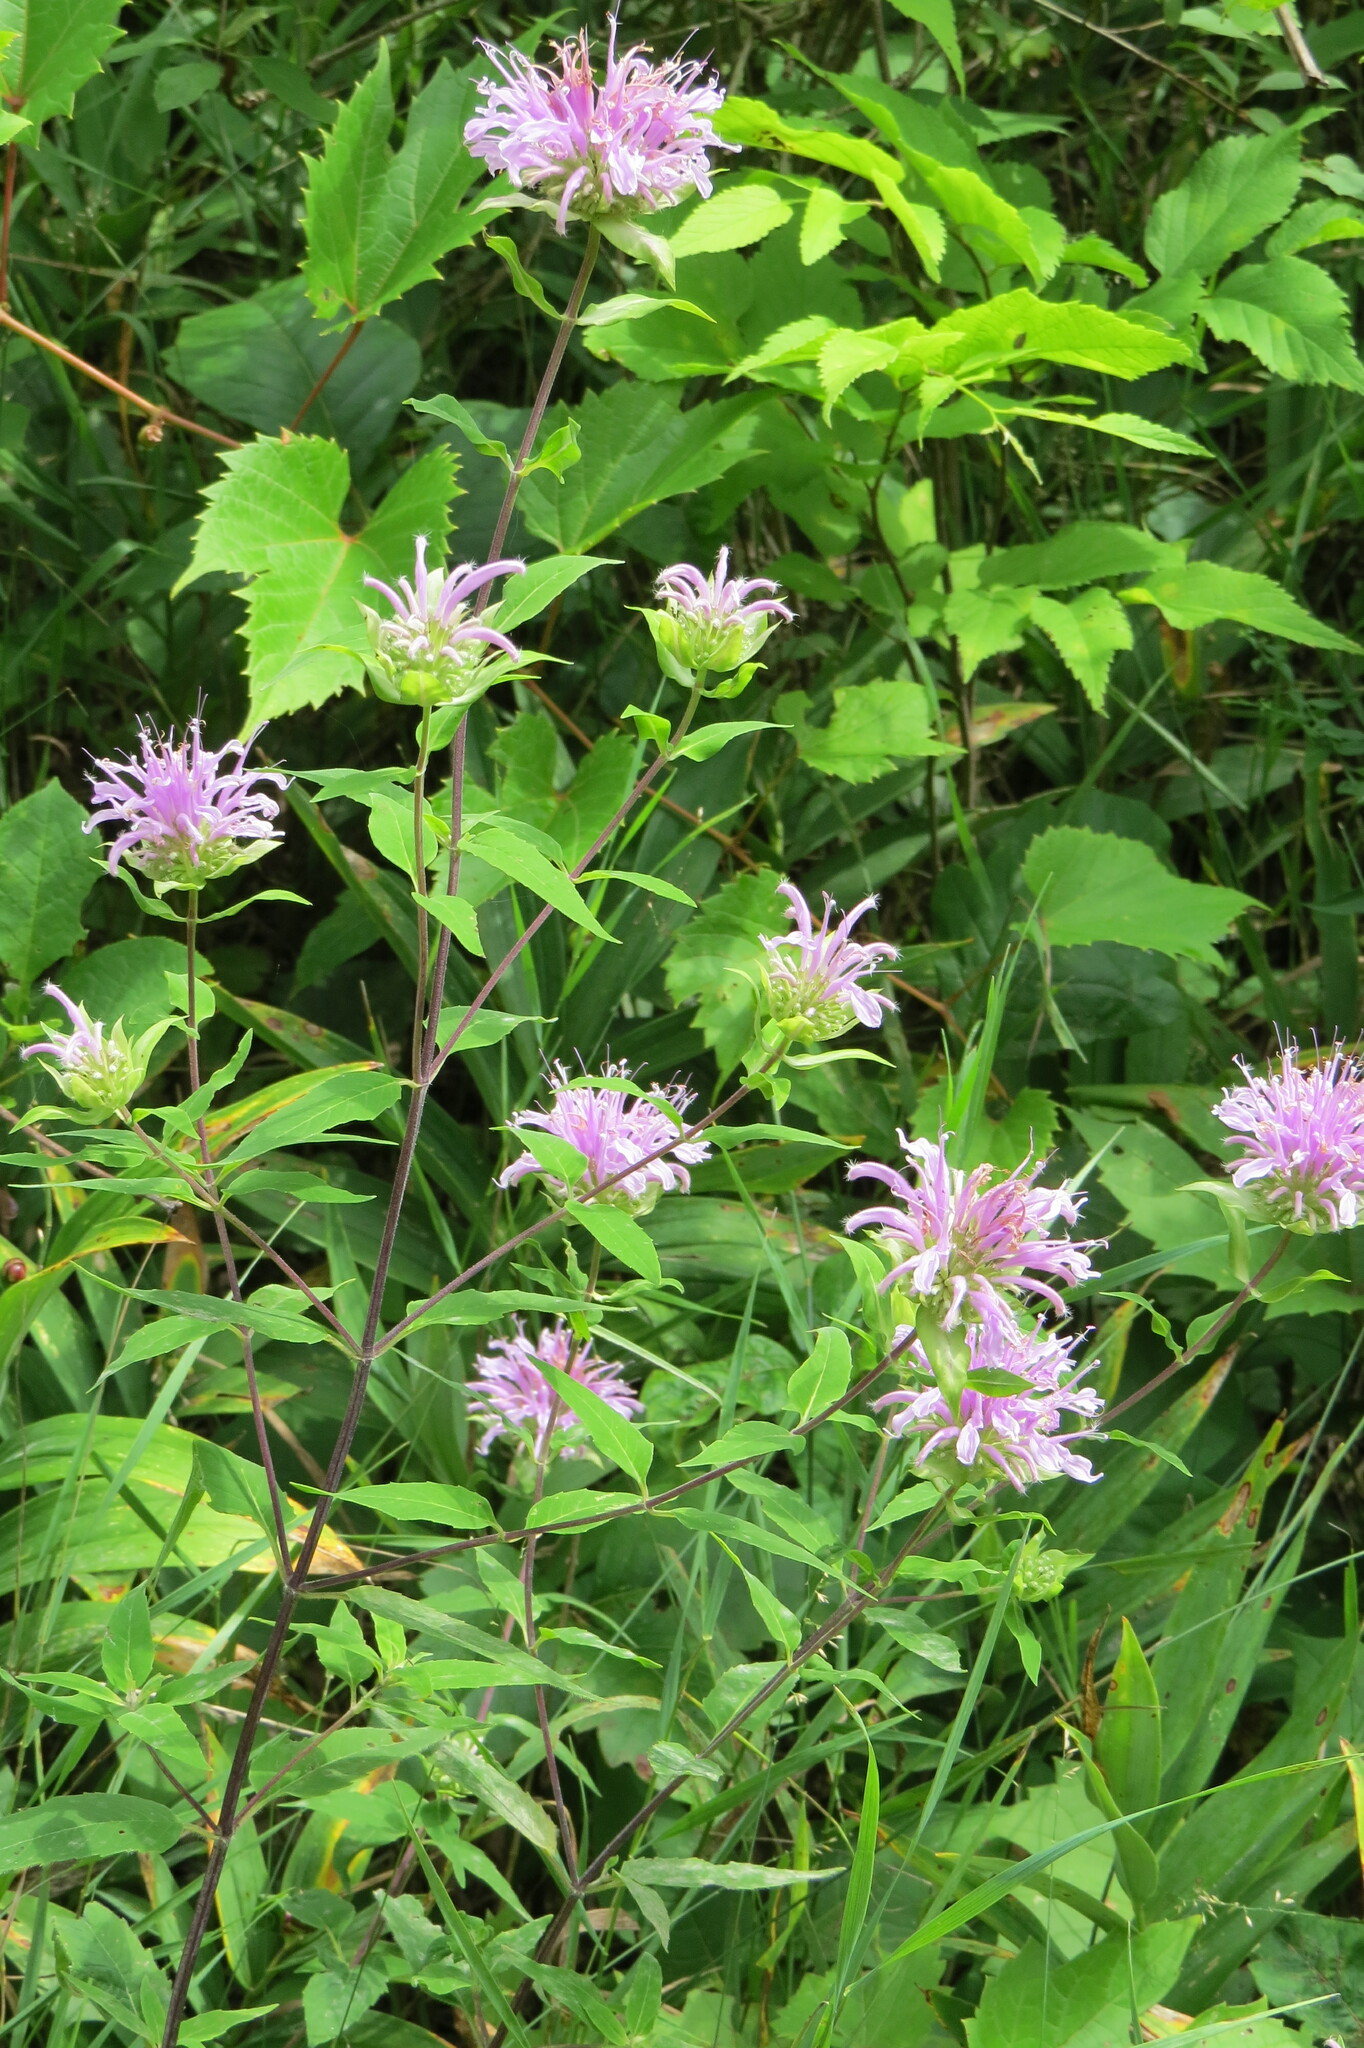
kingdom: Plantae
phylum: Tracheophyta
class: Magnoliopsida
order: Lamiales
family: Lamiaceae
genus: Monarda
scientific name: Monarda fistulosa
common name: Purple beebalm
